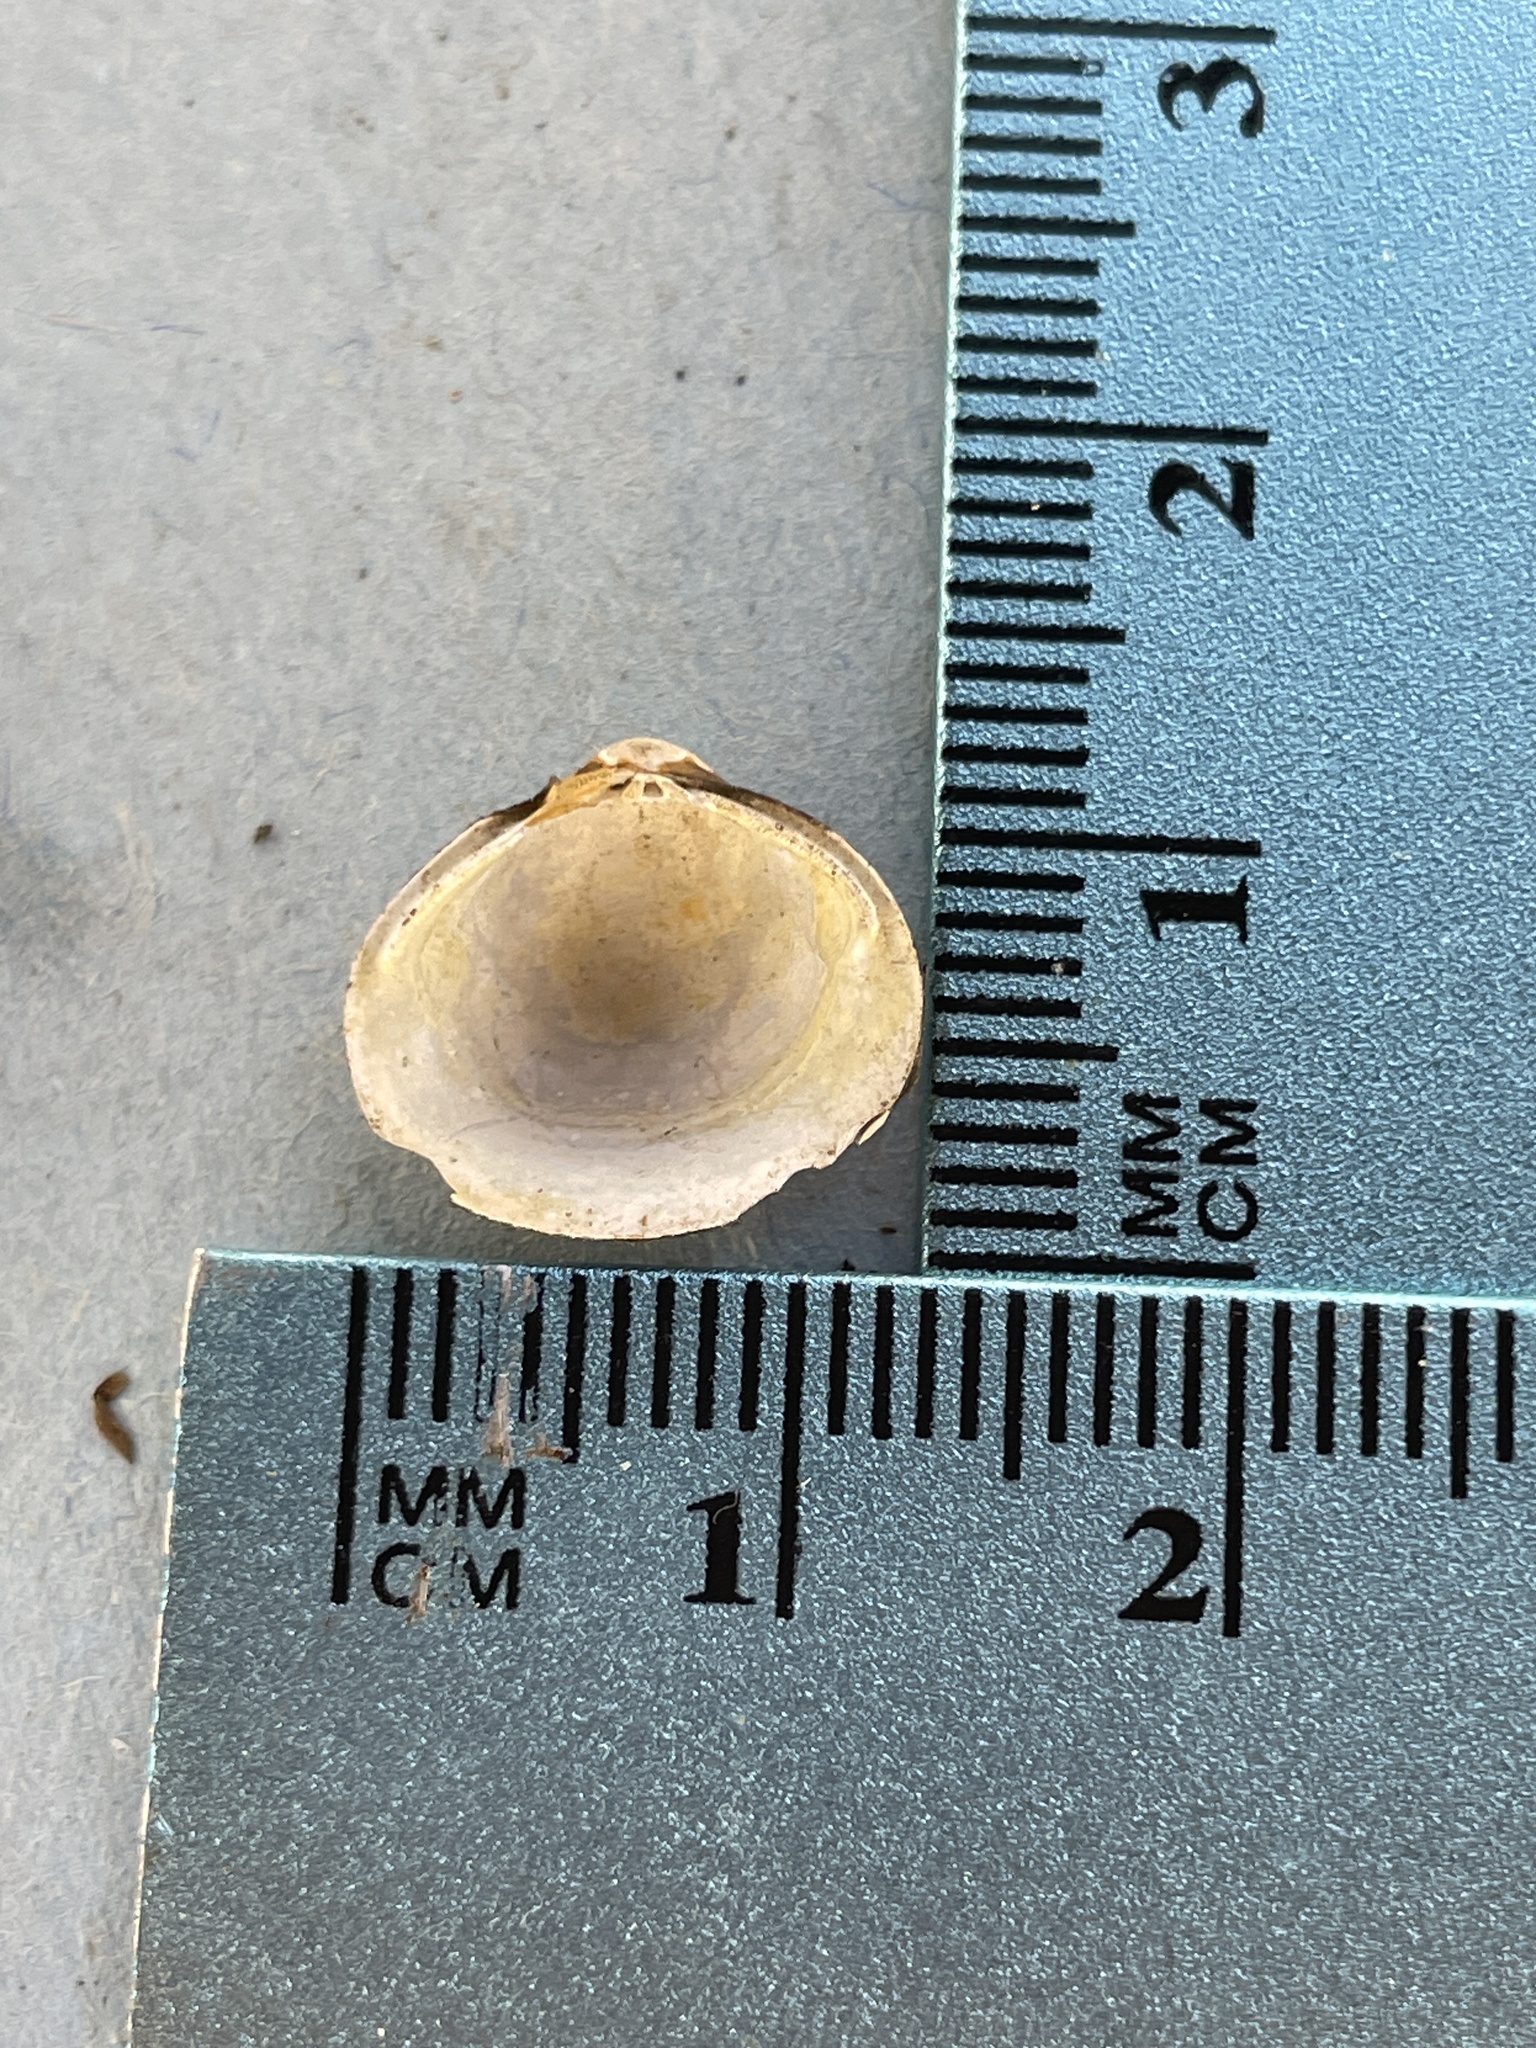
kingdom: Animalia
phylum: Mollusca
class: Bivalvia
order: Venerida
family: Cyrenidae
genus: Corbicula
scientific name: Corbicula fluminea
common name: Asian clam
